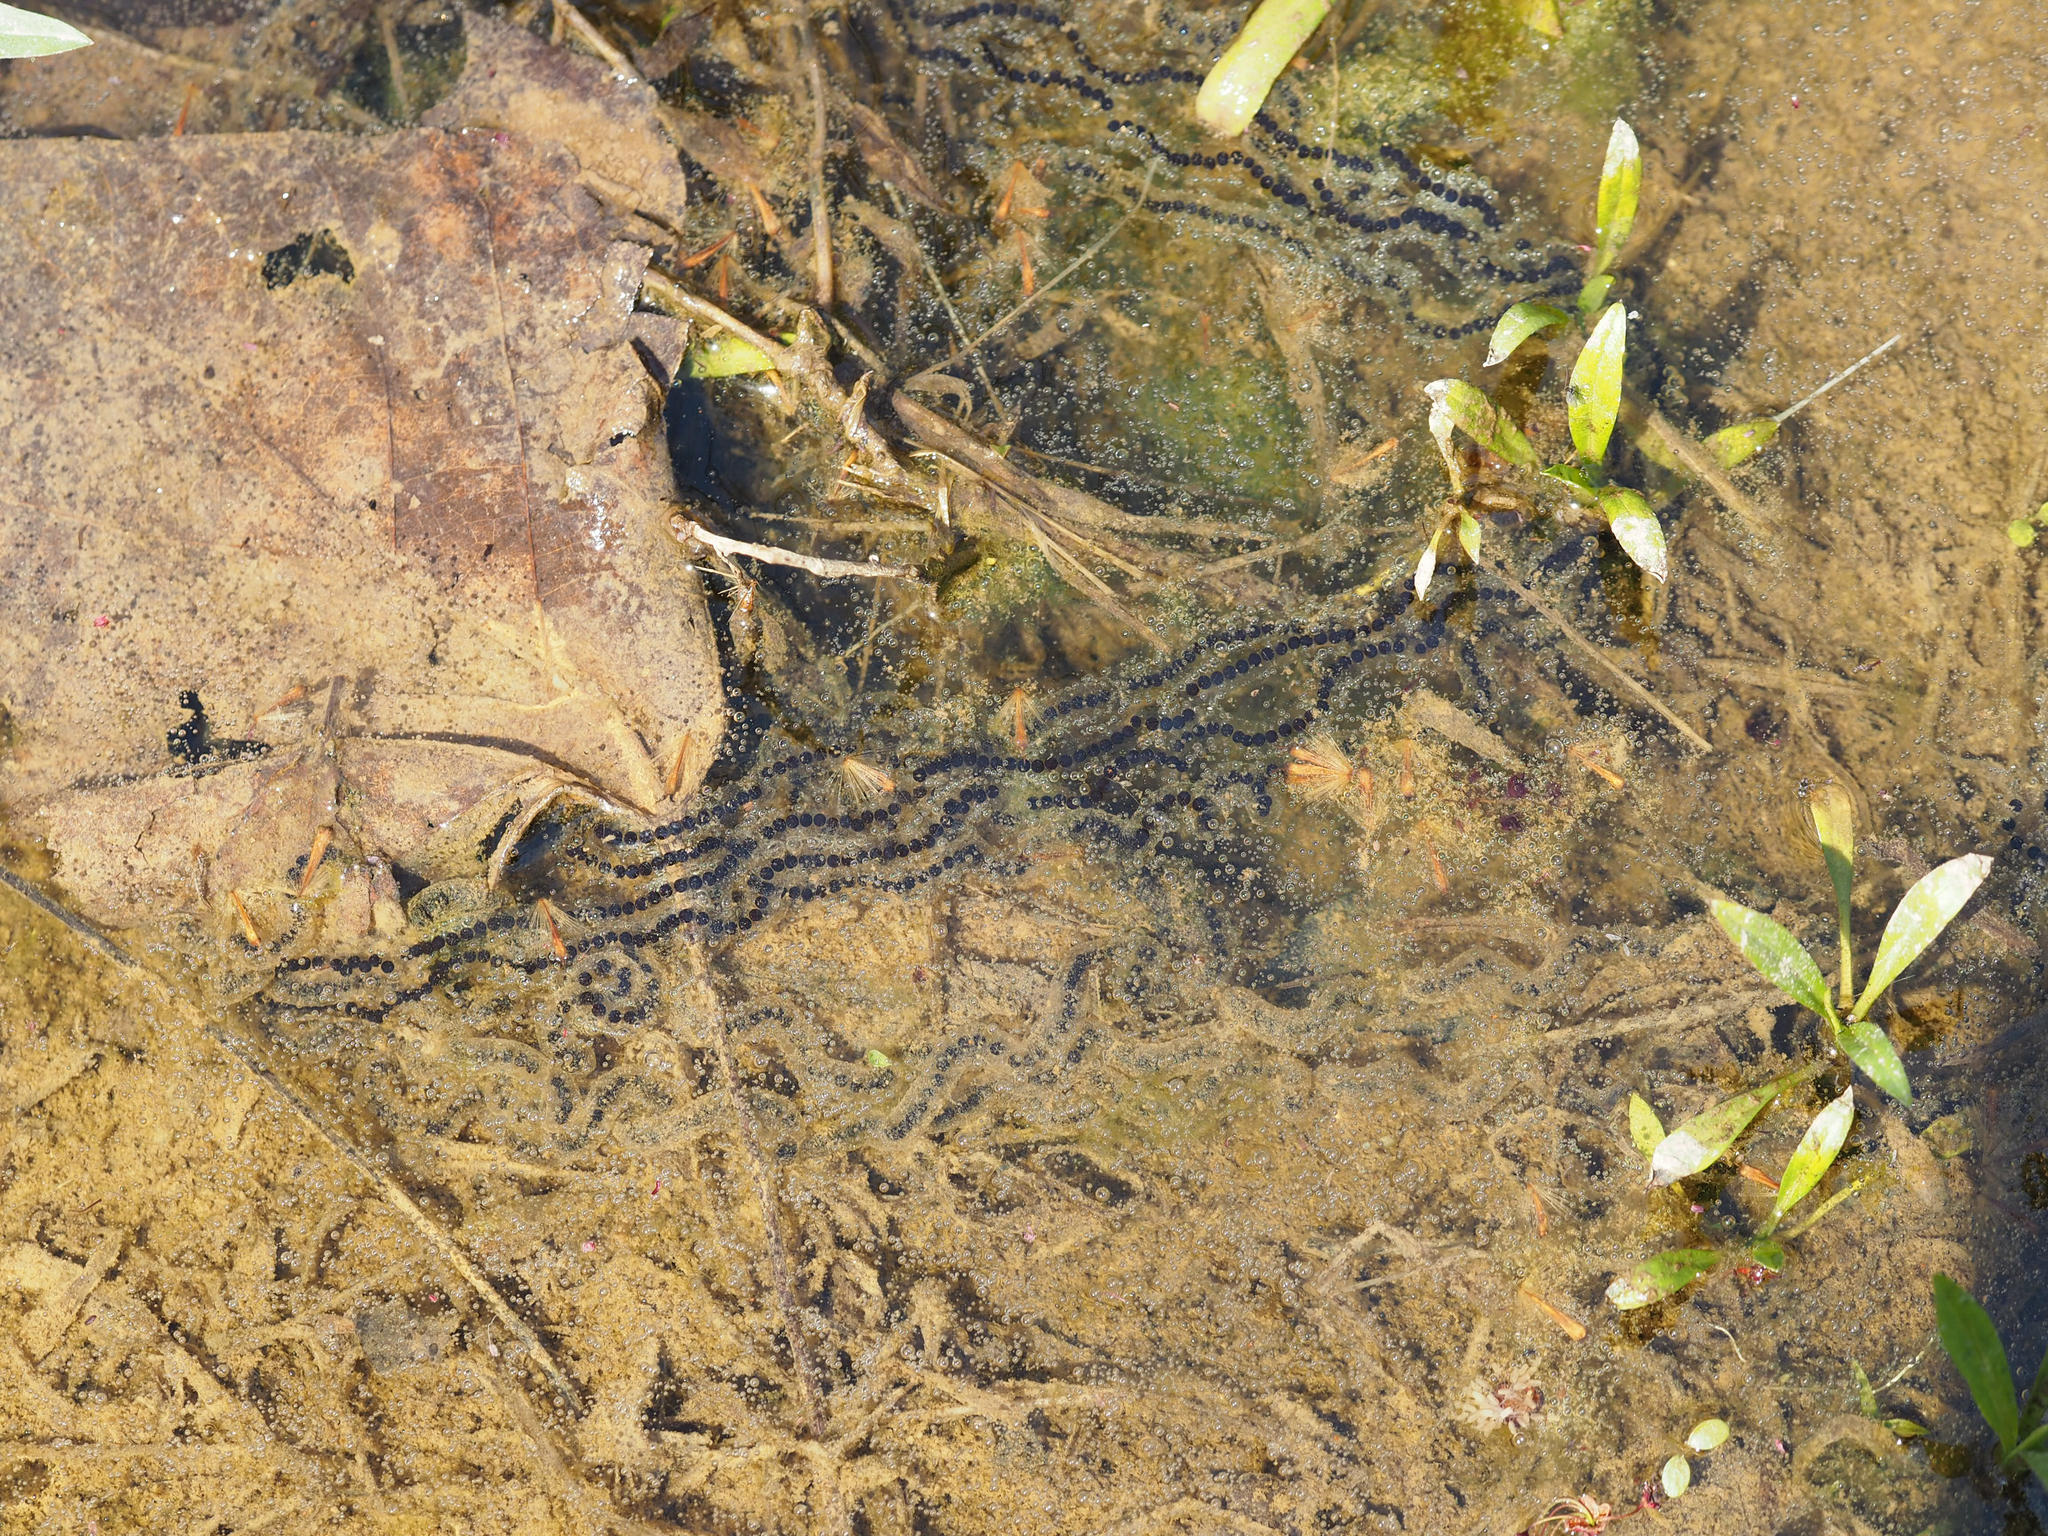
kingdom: Animalia
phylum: Chordata
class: Amphibia
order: Anura
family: Bufonidae
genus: Anaxyrus
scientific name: Anaxyrus americanus
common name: American toad
